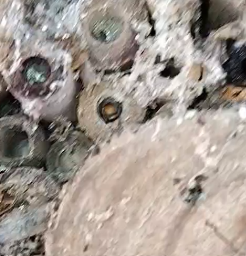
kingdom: Animalia
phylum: Arthropoda
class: Insecta
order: Hymenoptera
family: Megachilidae
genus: Megachile
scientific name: Megachile ferox
